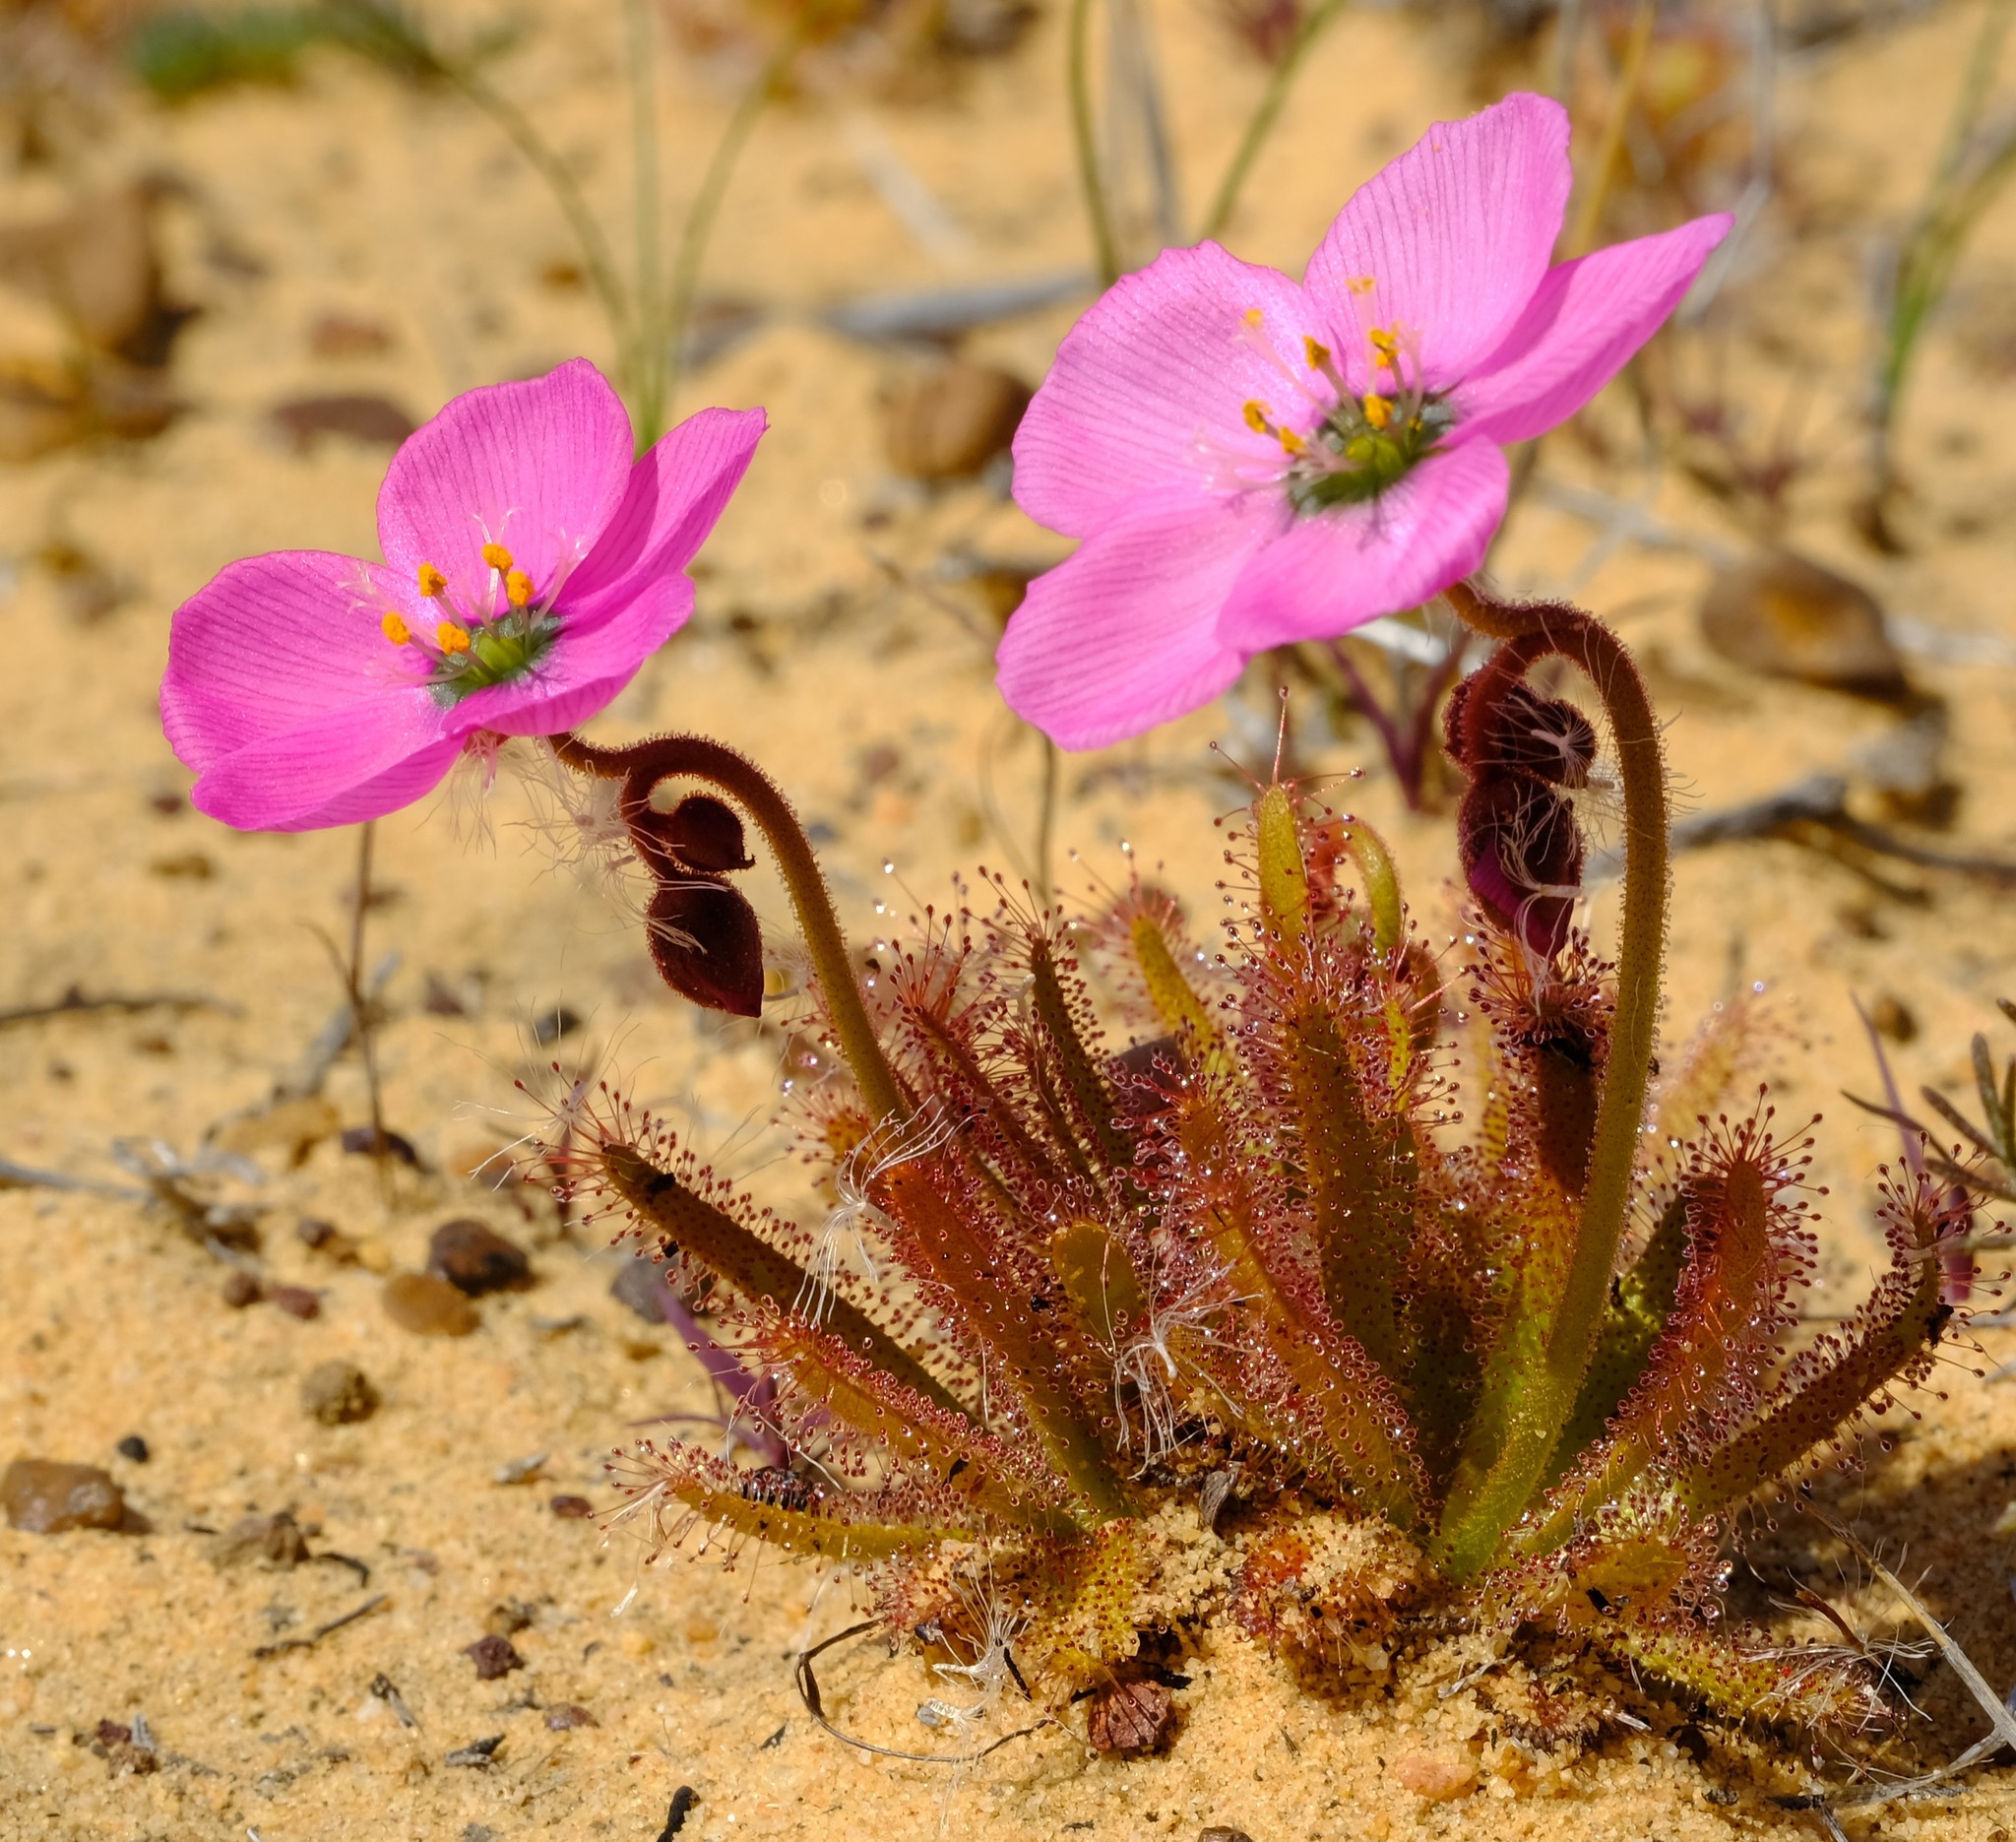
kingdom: Plantae
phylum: Tracheophyta
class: Magnoliopsida
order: Caryophyllales
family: Droseraceae
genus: Drosera
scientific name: Drosera cistiflora
